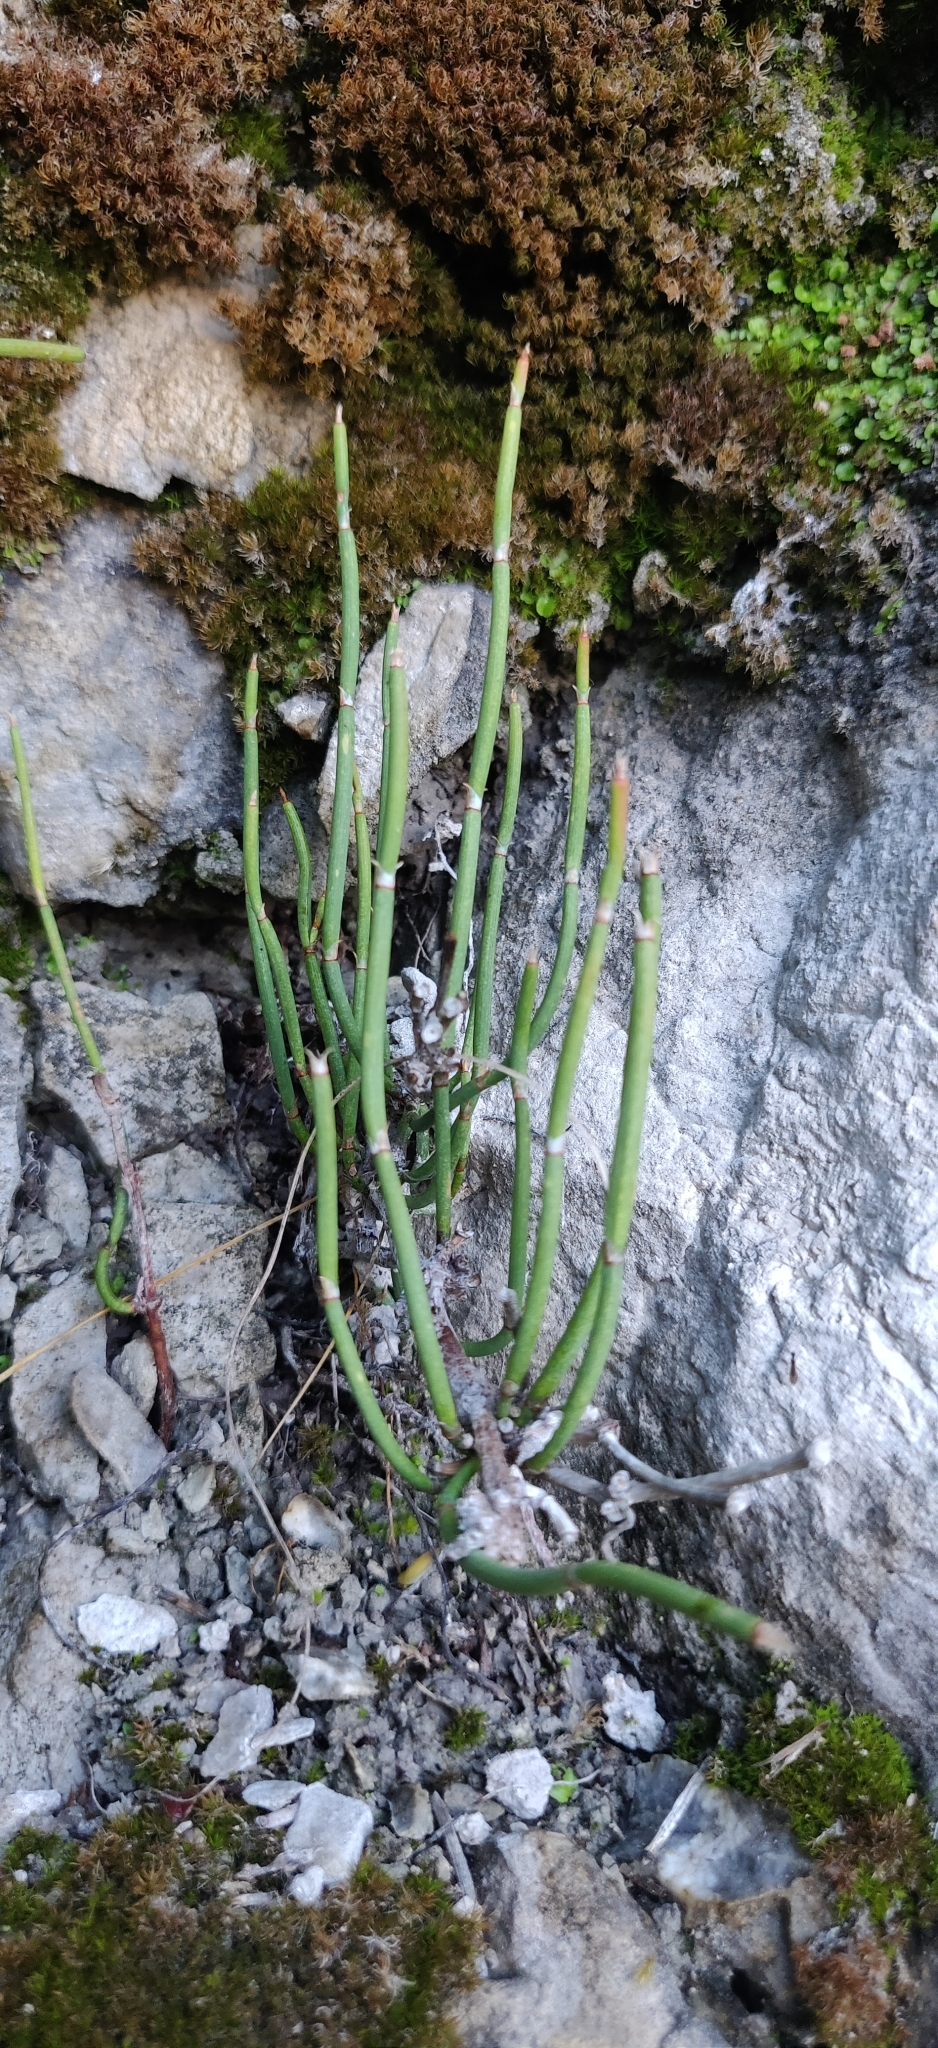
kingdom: Plantae
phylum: Tracheophyta
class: Gnetopsida
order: Ephedrales
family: Ephedraceae
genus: Ephedra
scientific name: Ephedra gerardiana
